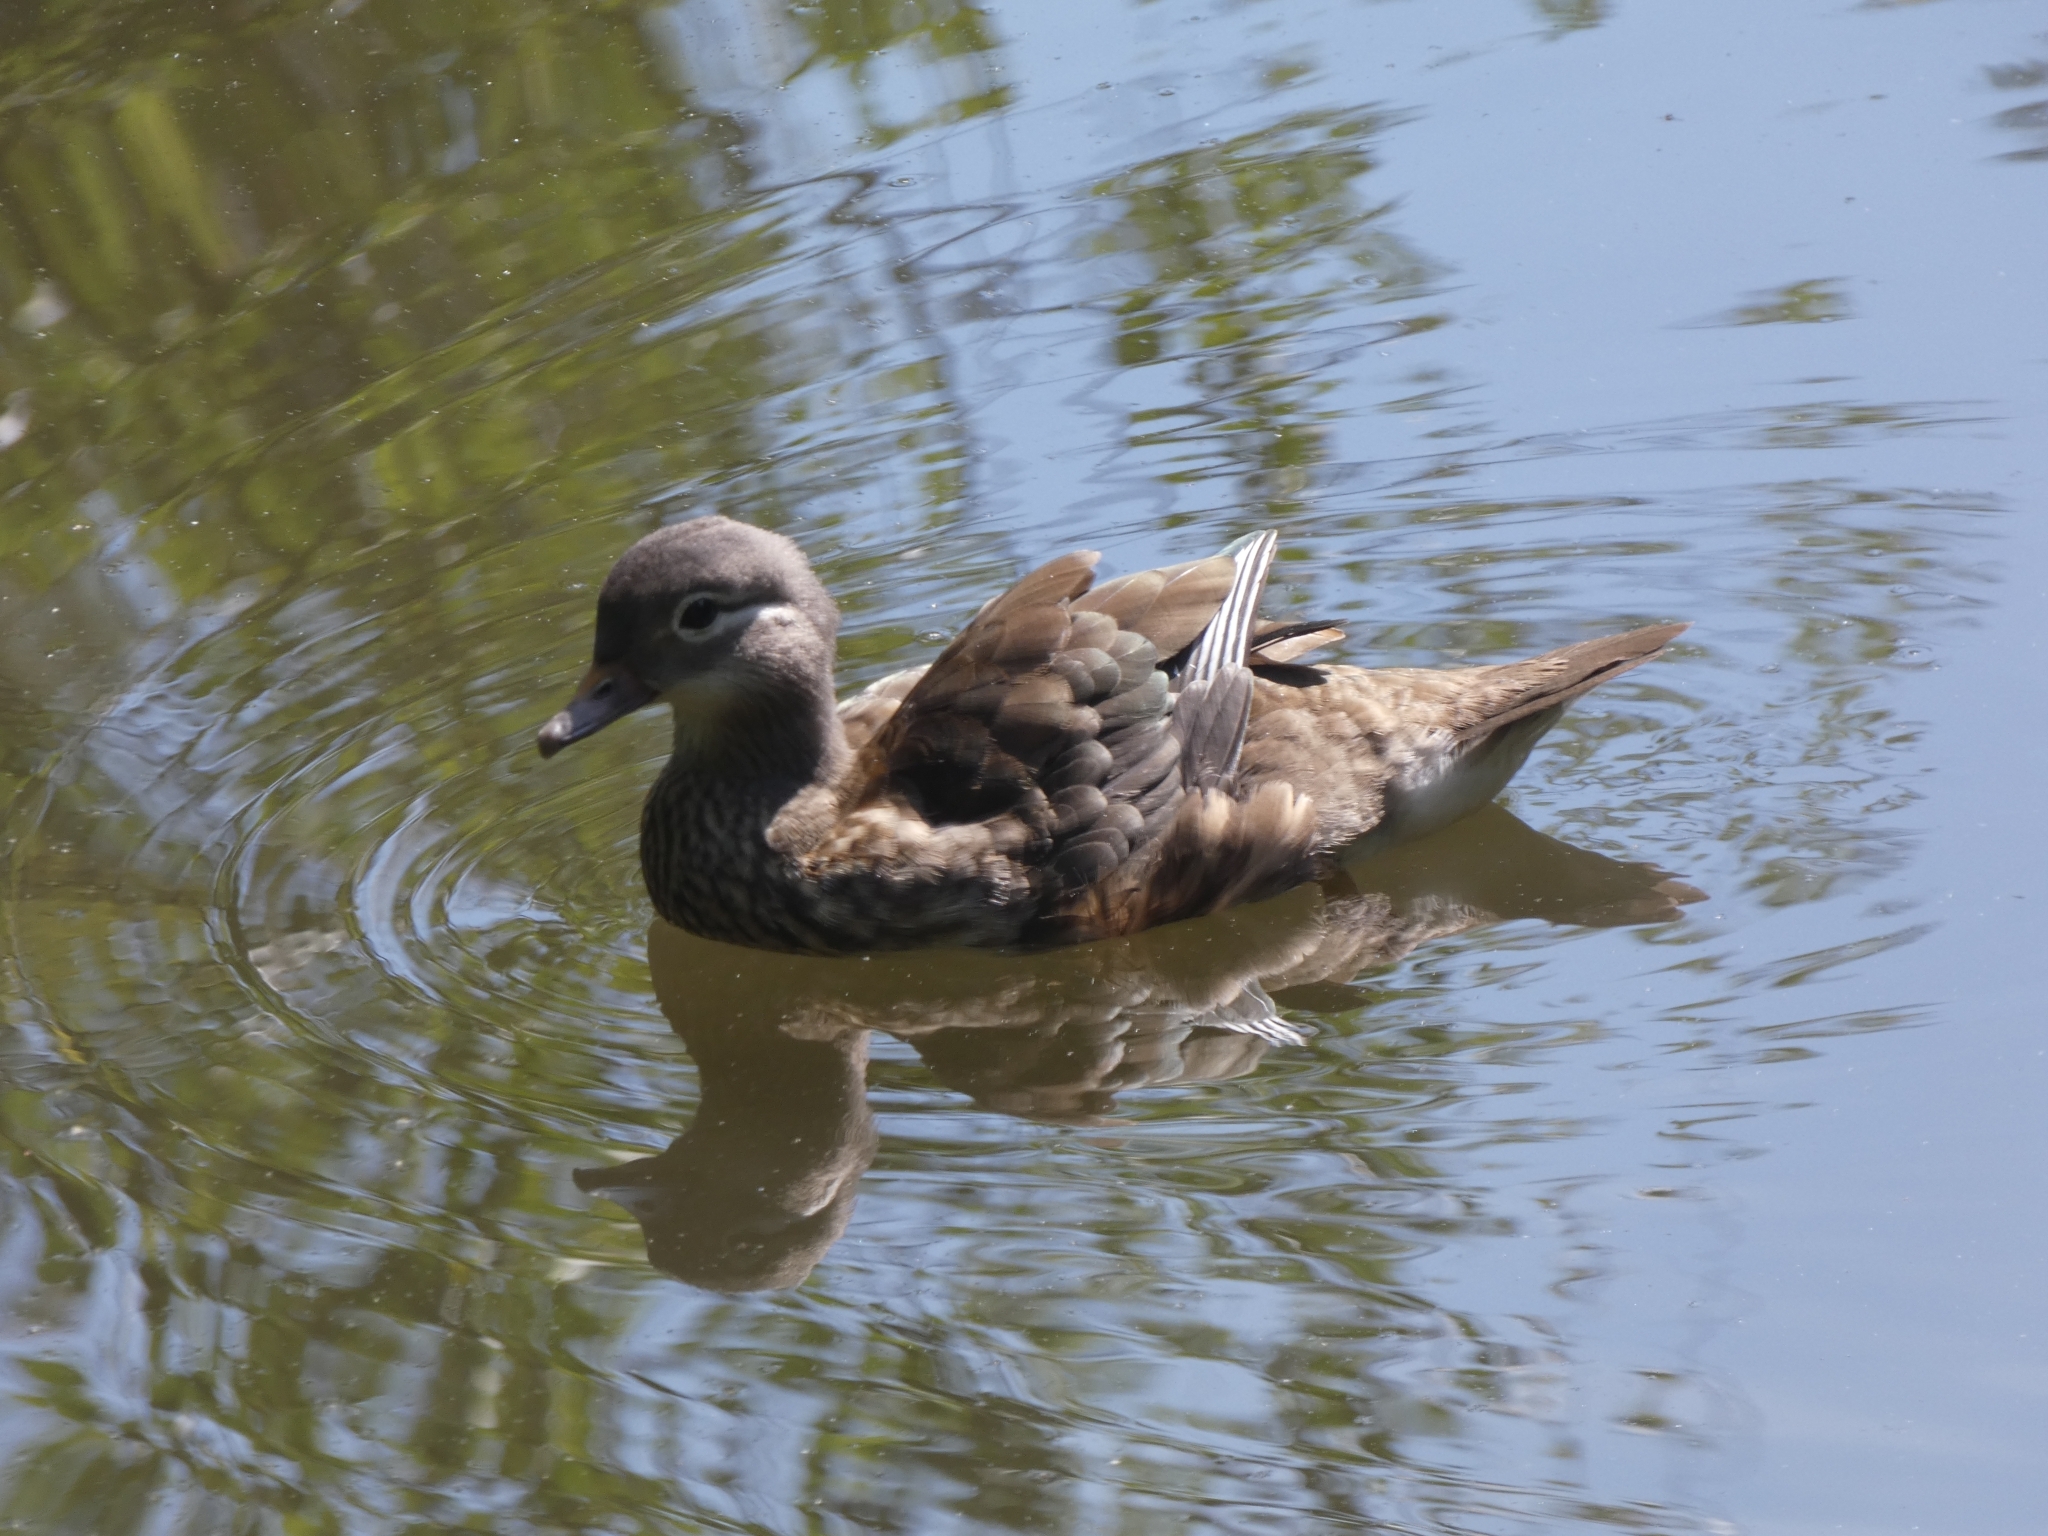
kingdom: Animalia
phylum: Chordata
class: Aves
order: Anseriformes
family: Anatidae
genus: Aix
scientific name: Aix galericulata
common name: Mandarin duck
